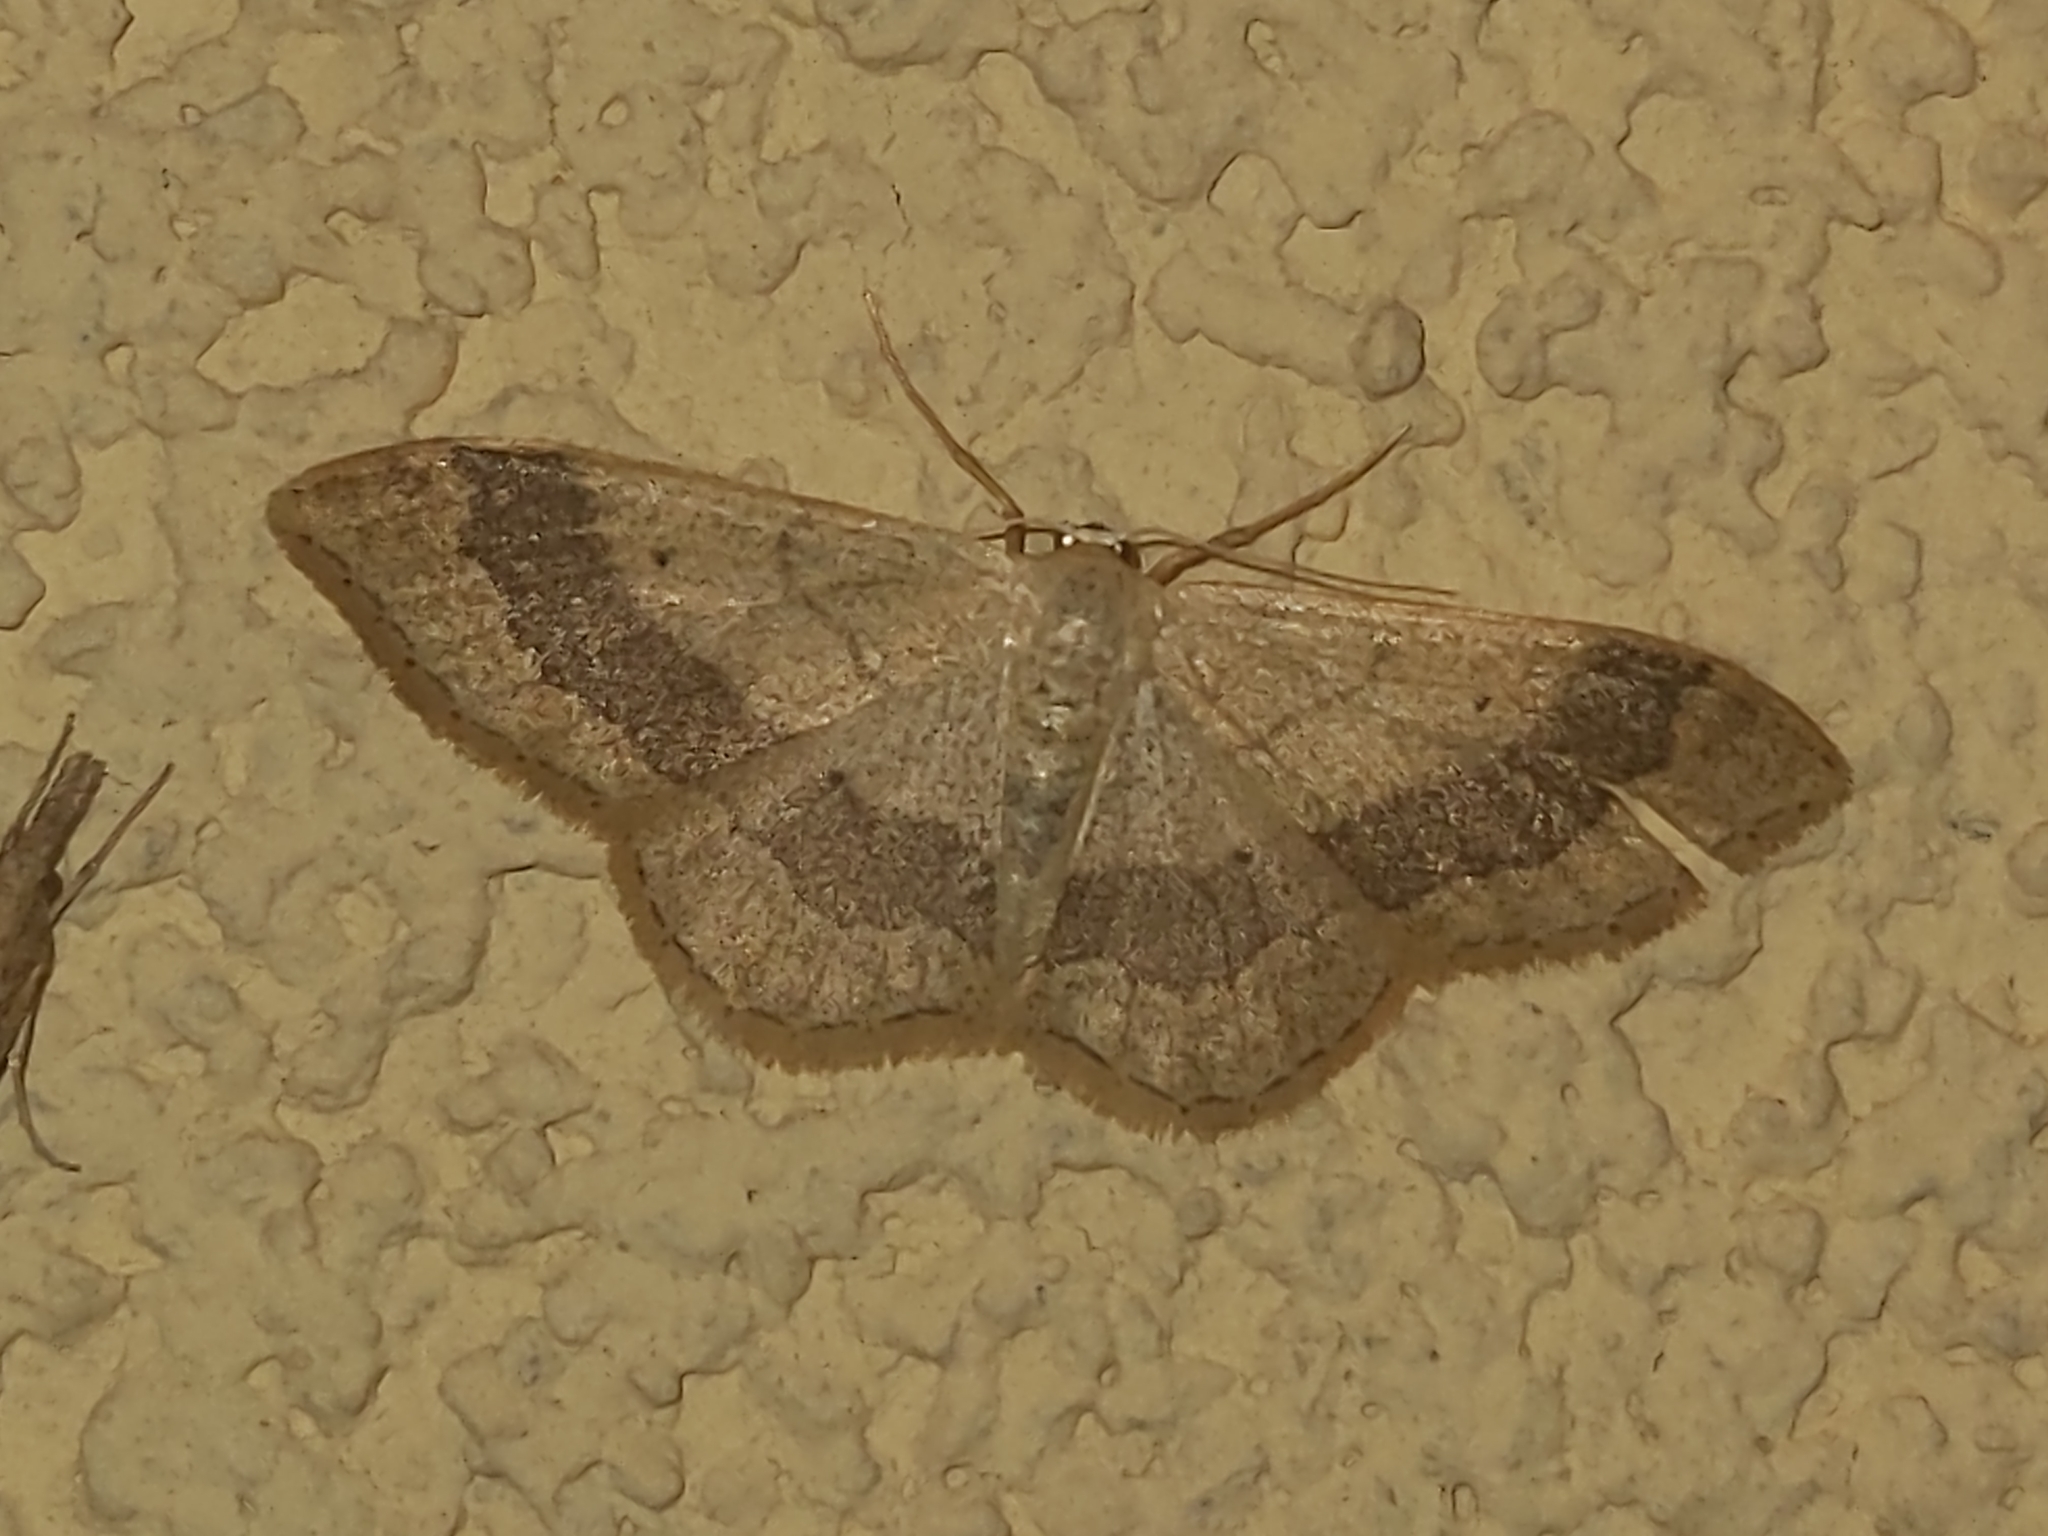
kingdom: Animalia
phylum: Arthropoda
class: Insecta
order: Lepidoptera
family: Geometridae
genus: Idaea
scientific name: Idaea aversata
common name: Riband wave
